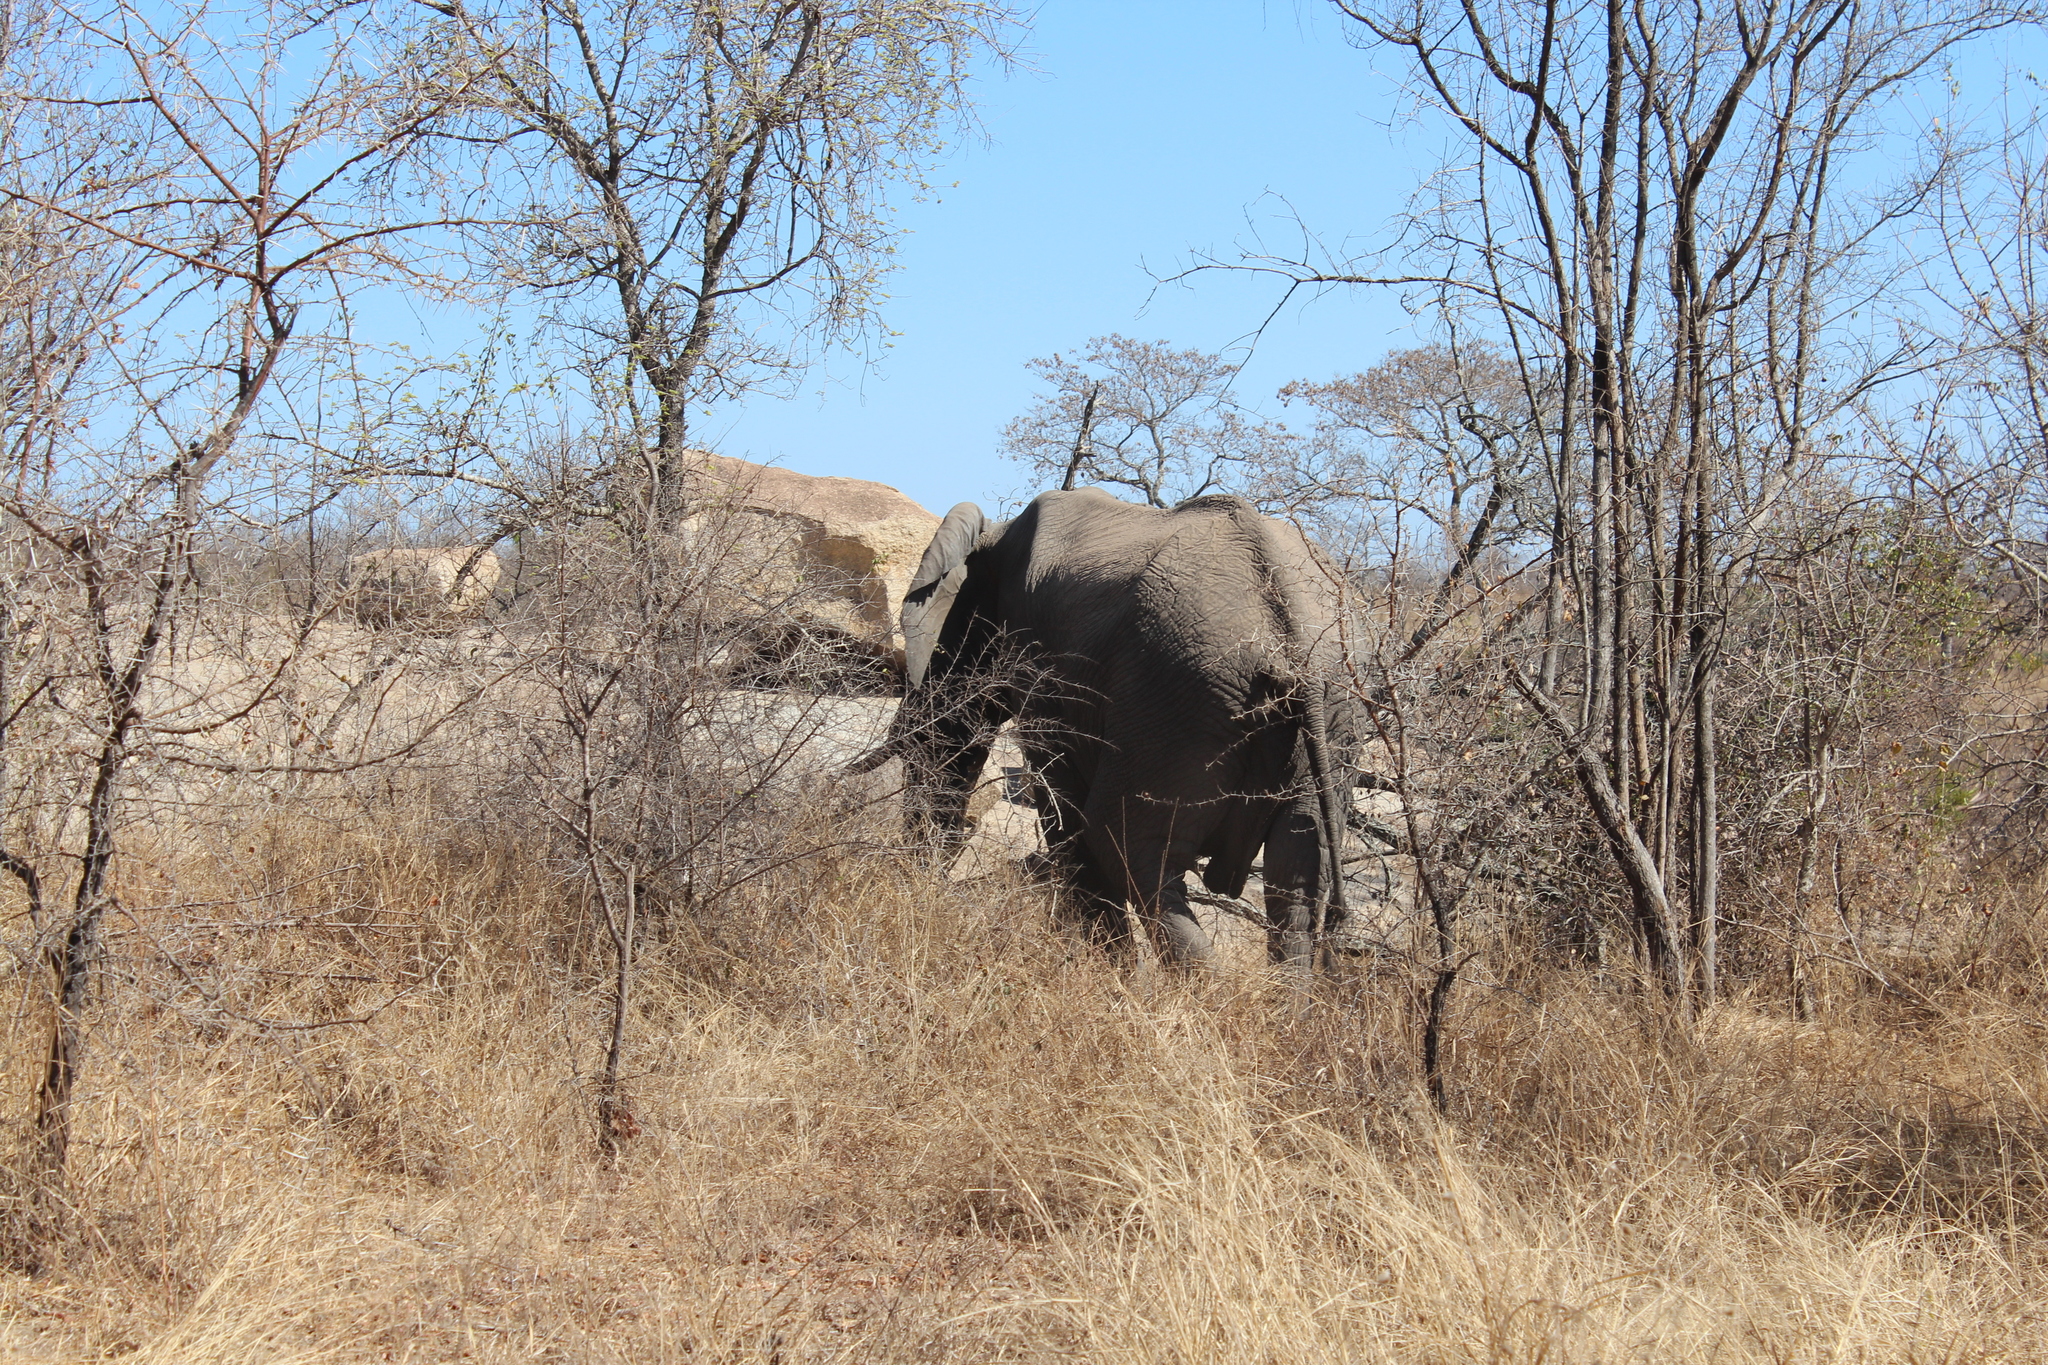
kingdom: Animalia
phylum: Chordata
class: Mammalia
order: Proboscidea
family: Elephantidae
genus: Loxodonta
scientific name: Loxodonta africana
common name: African elephant
